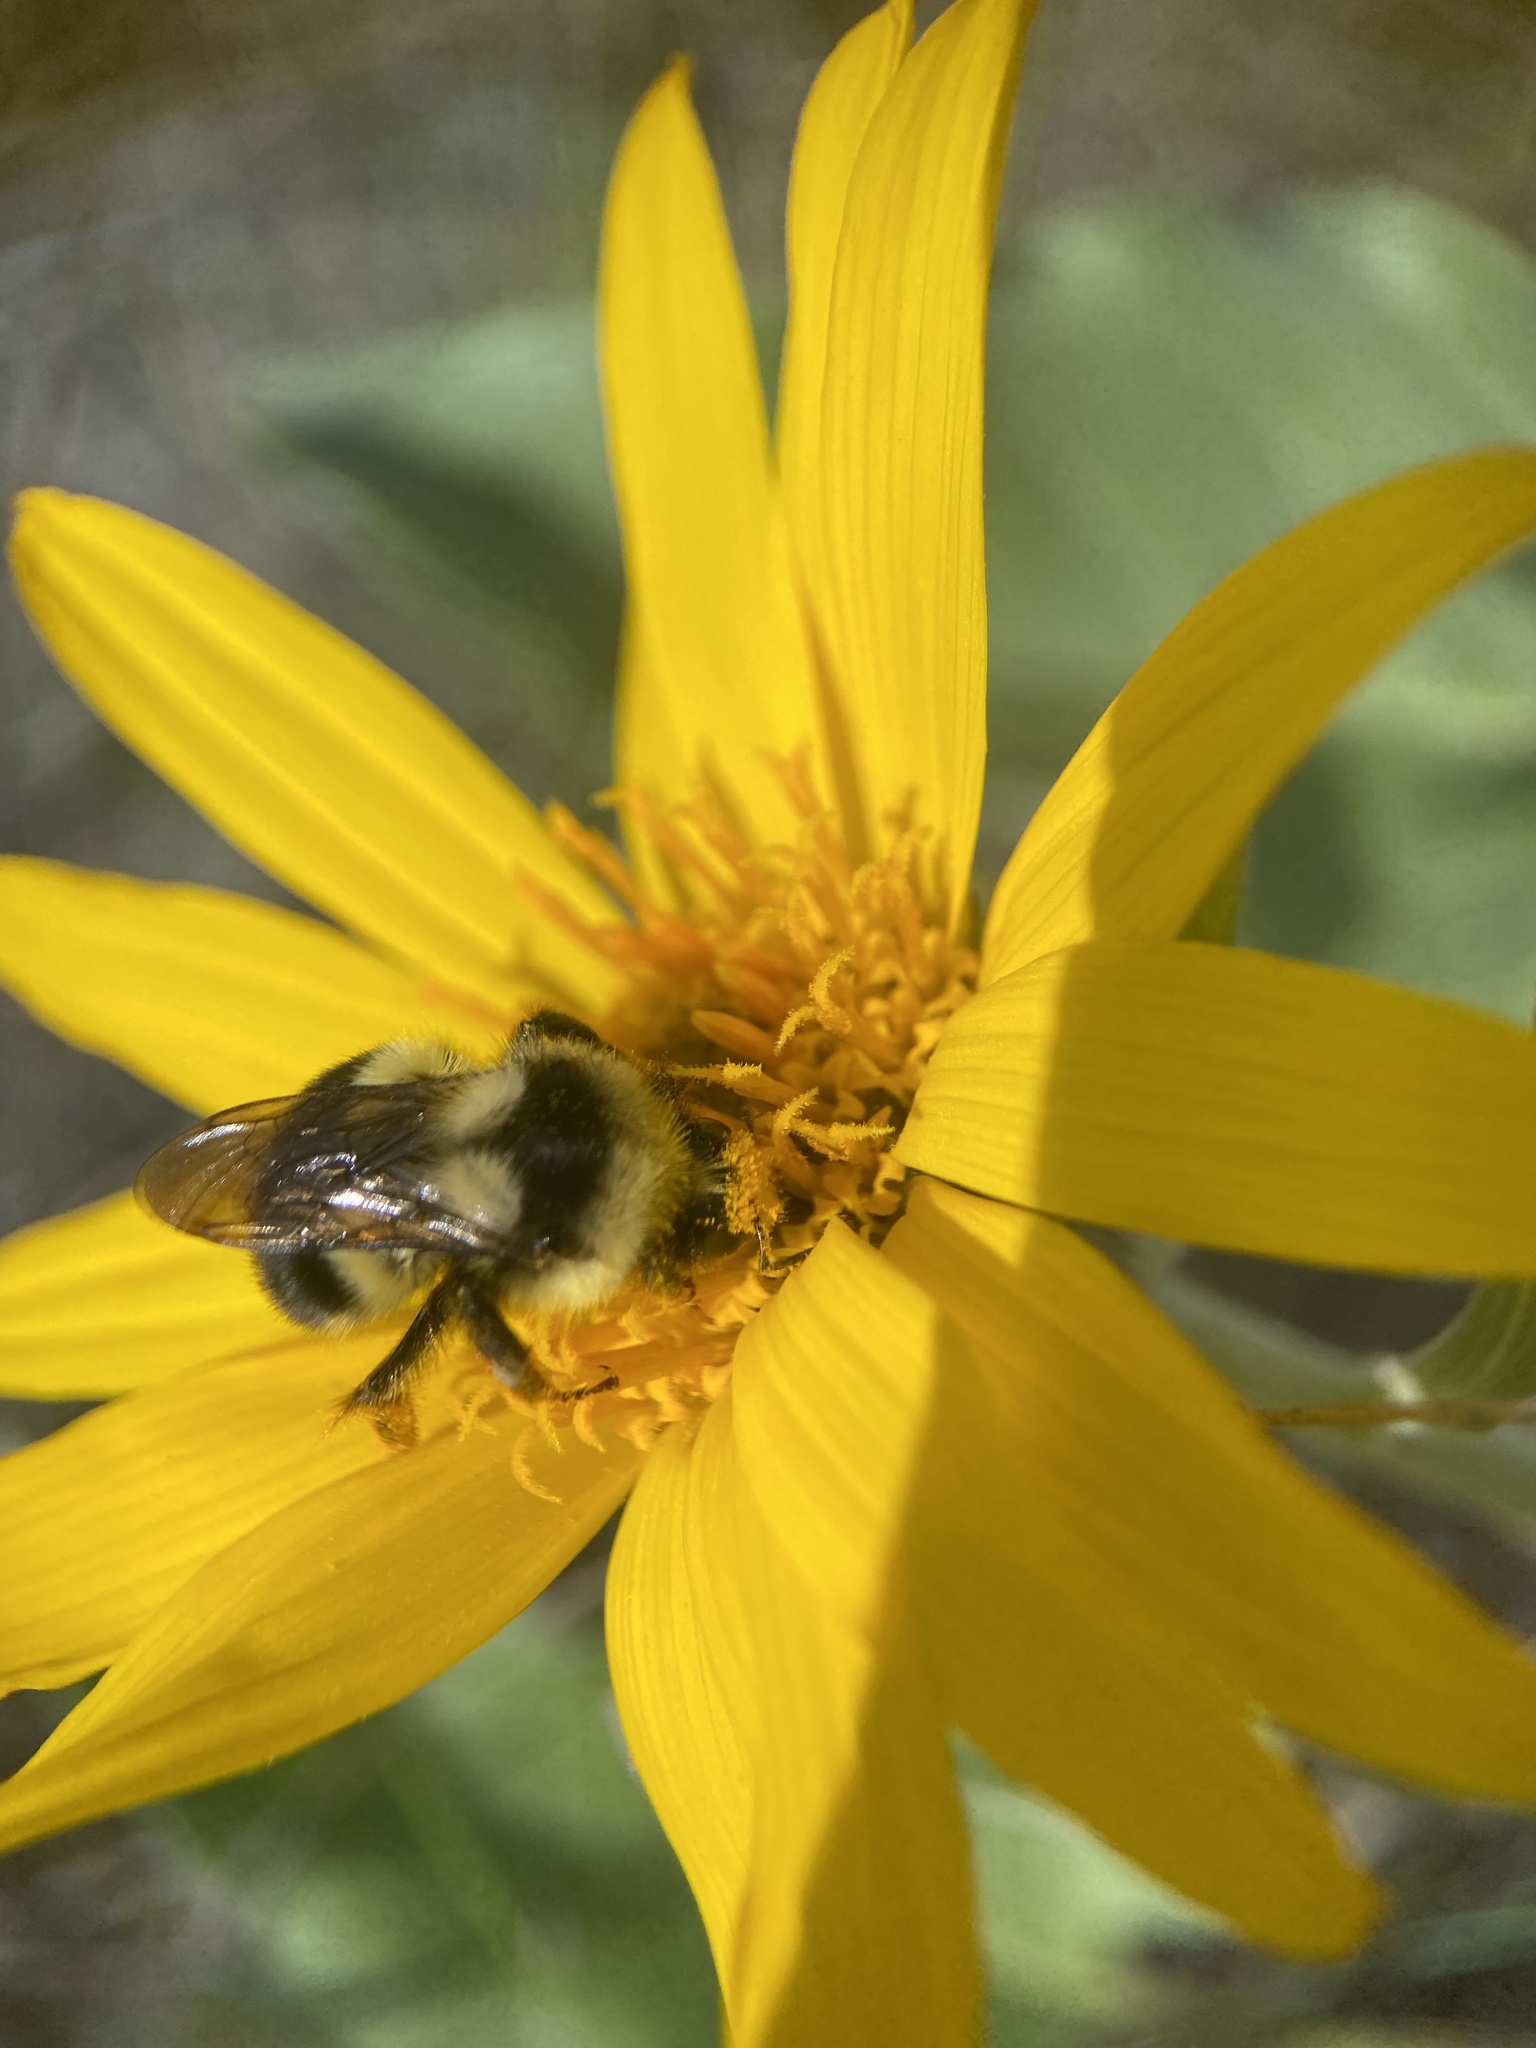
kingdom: Animalia
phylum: Arthropoda
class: Insecta
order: Hymenoptera
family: Apidae
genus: Bombus
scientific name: Bombus vancouverensis
